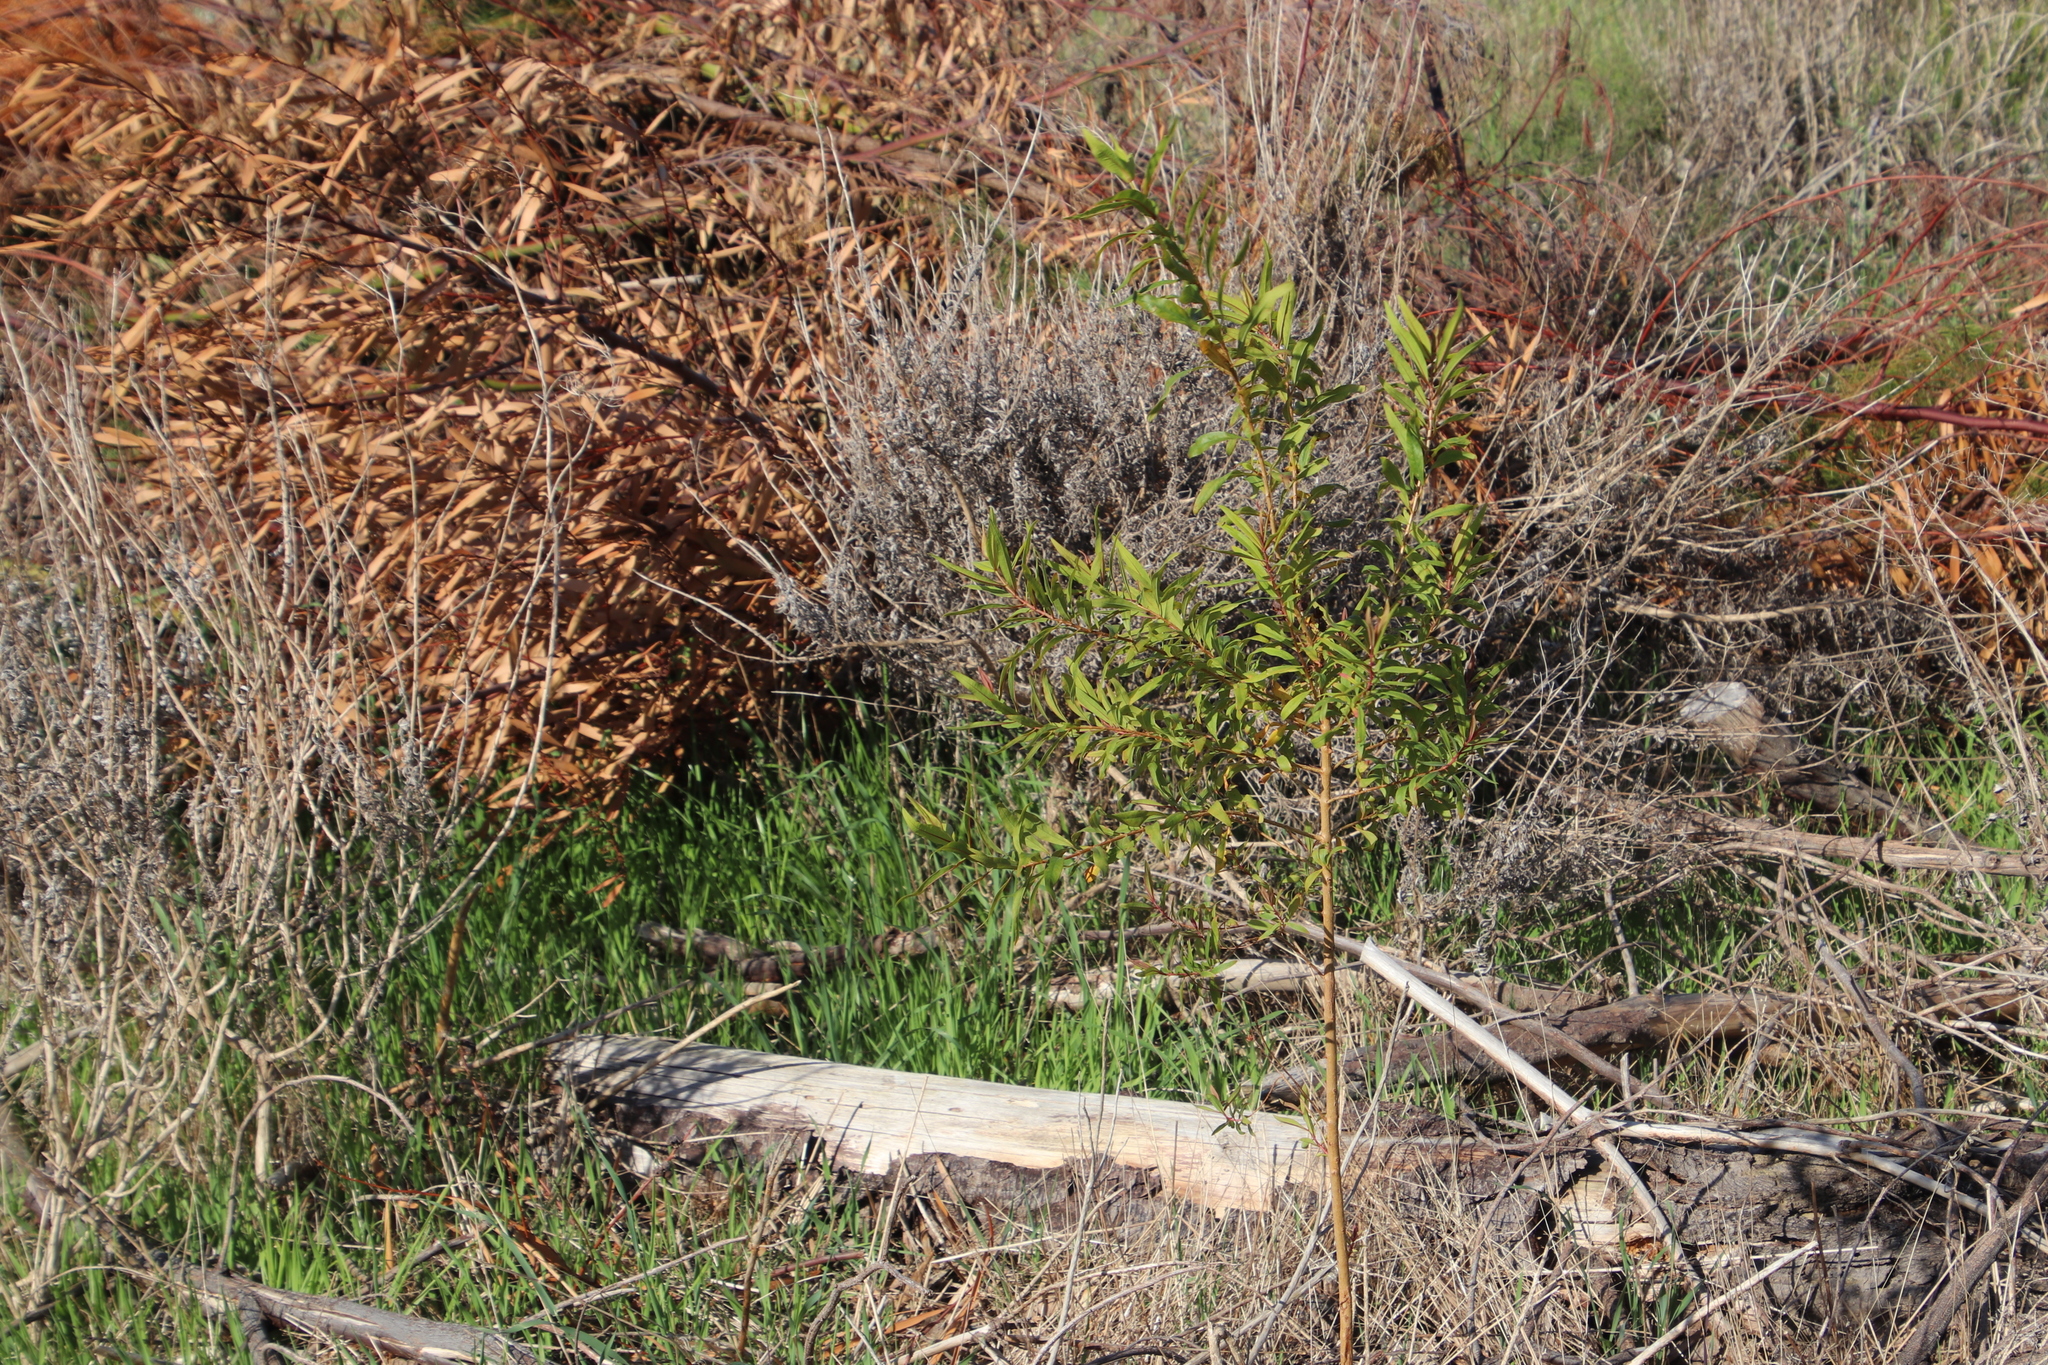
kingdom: Plantae
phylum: Tracheophyta
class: Magnoliopsida
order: Malpighiales
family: Hypericaceae
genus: Hypericum
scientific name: Hypericum canariense
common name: Canary island st. johnswort
